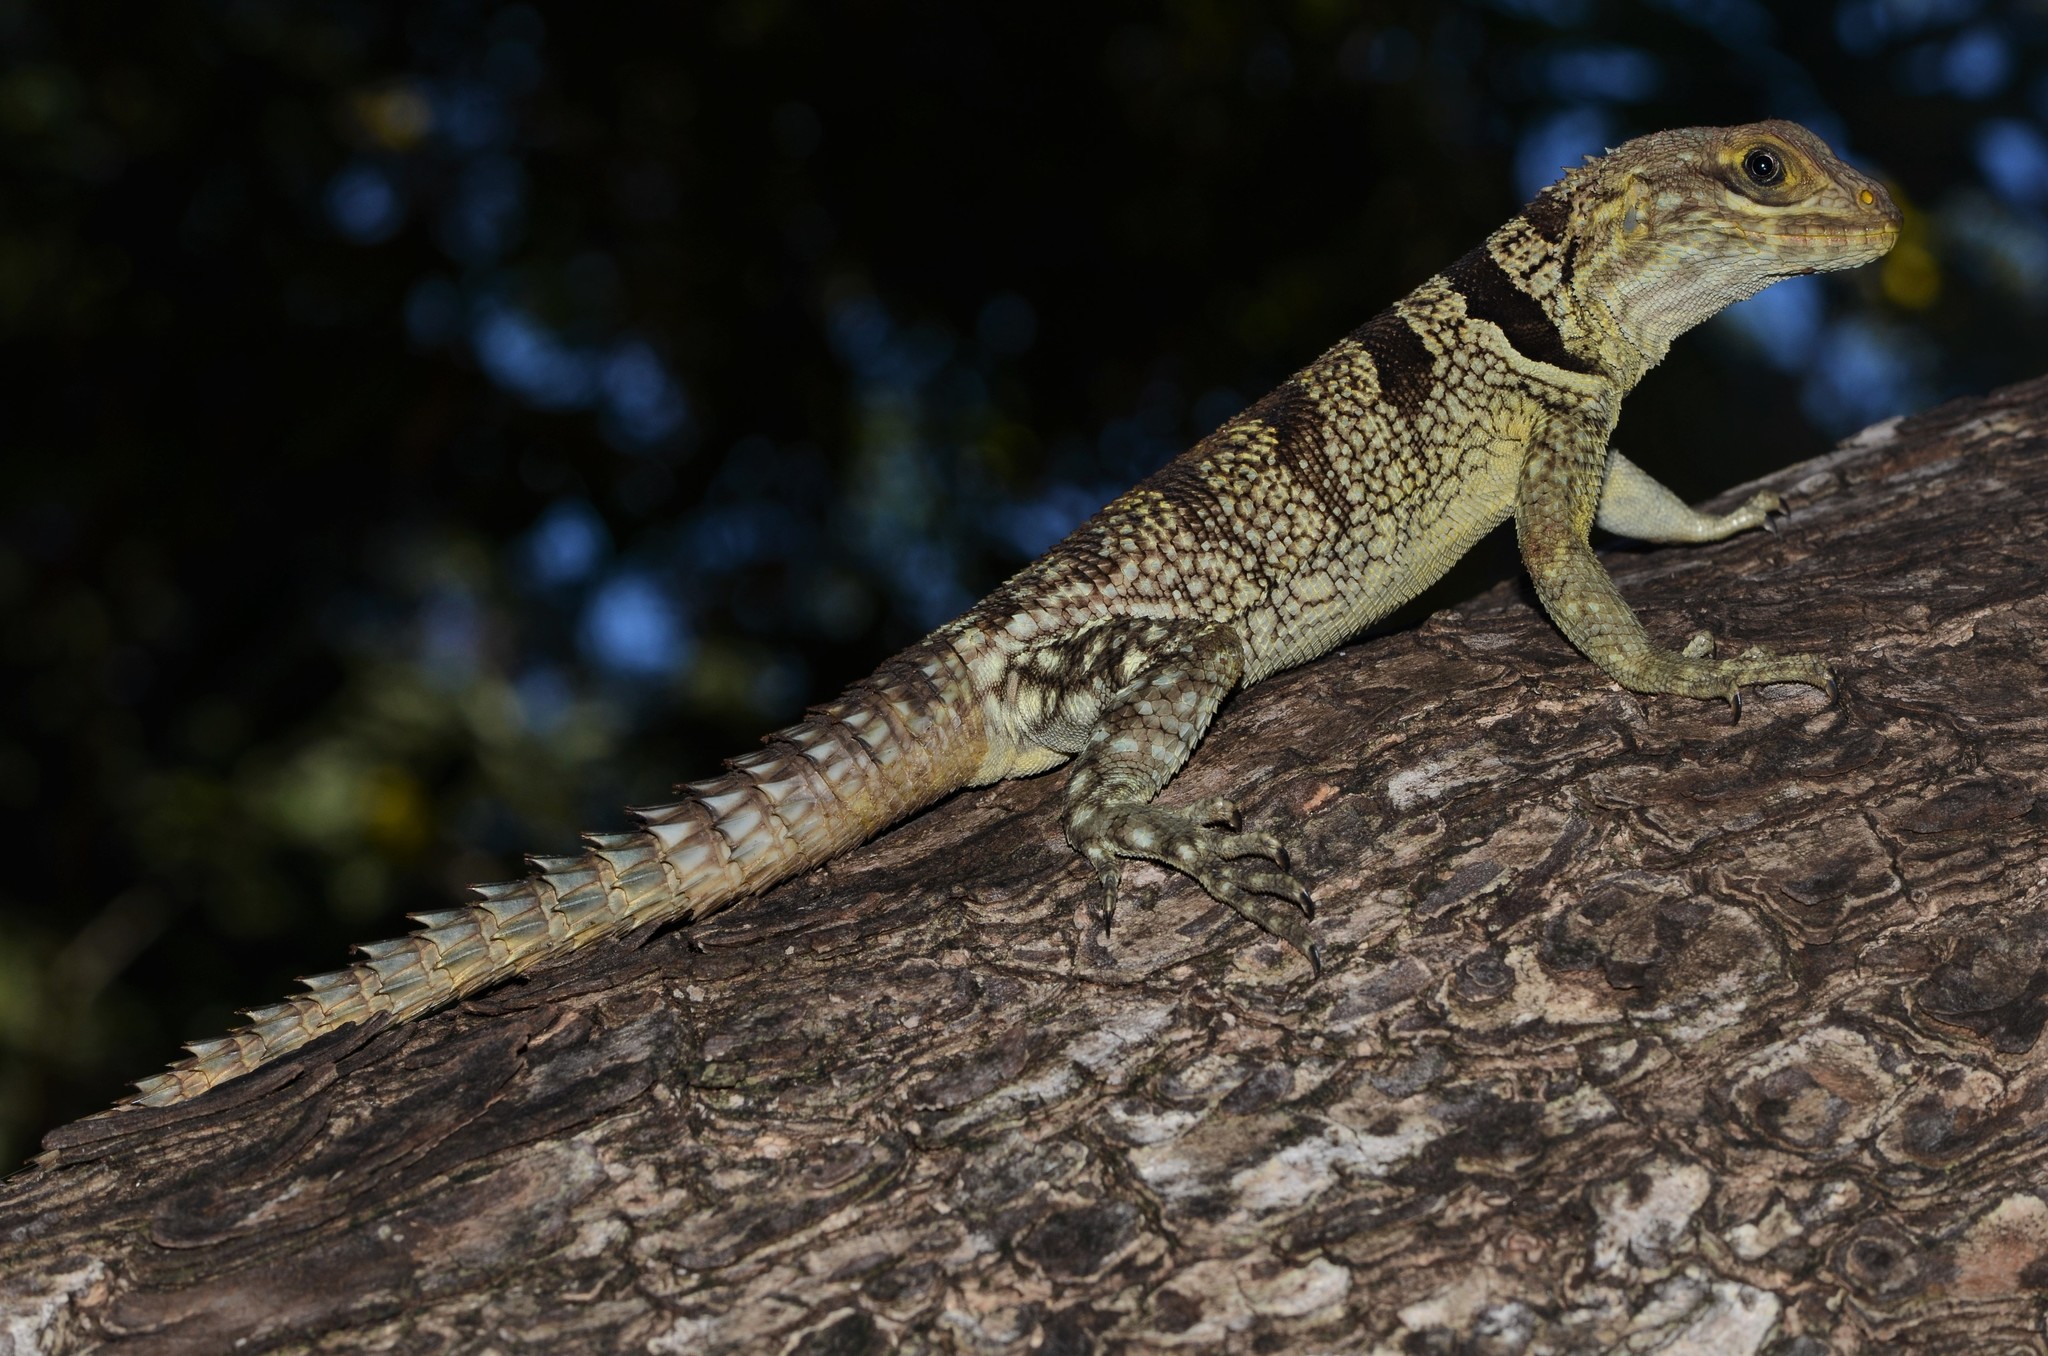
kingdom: Animalia
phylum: Chordata
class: Squamata
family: Opluridae
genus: Oplurus
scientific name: Oplurus cuvieri
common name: Cuvier's madagascar swift
